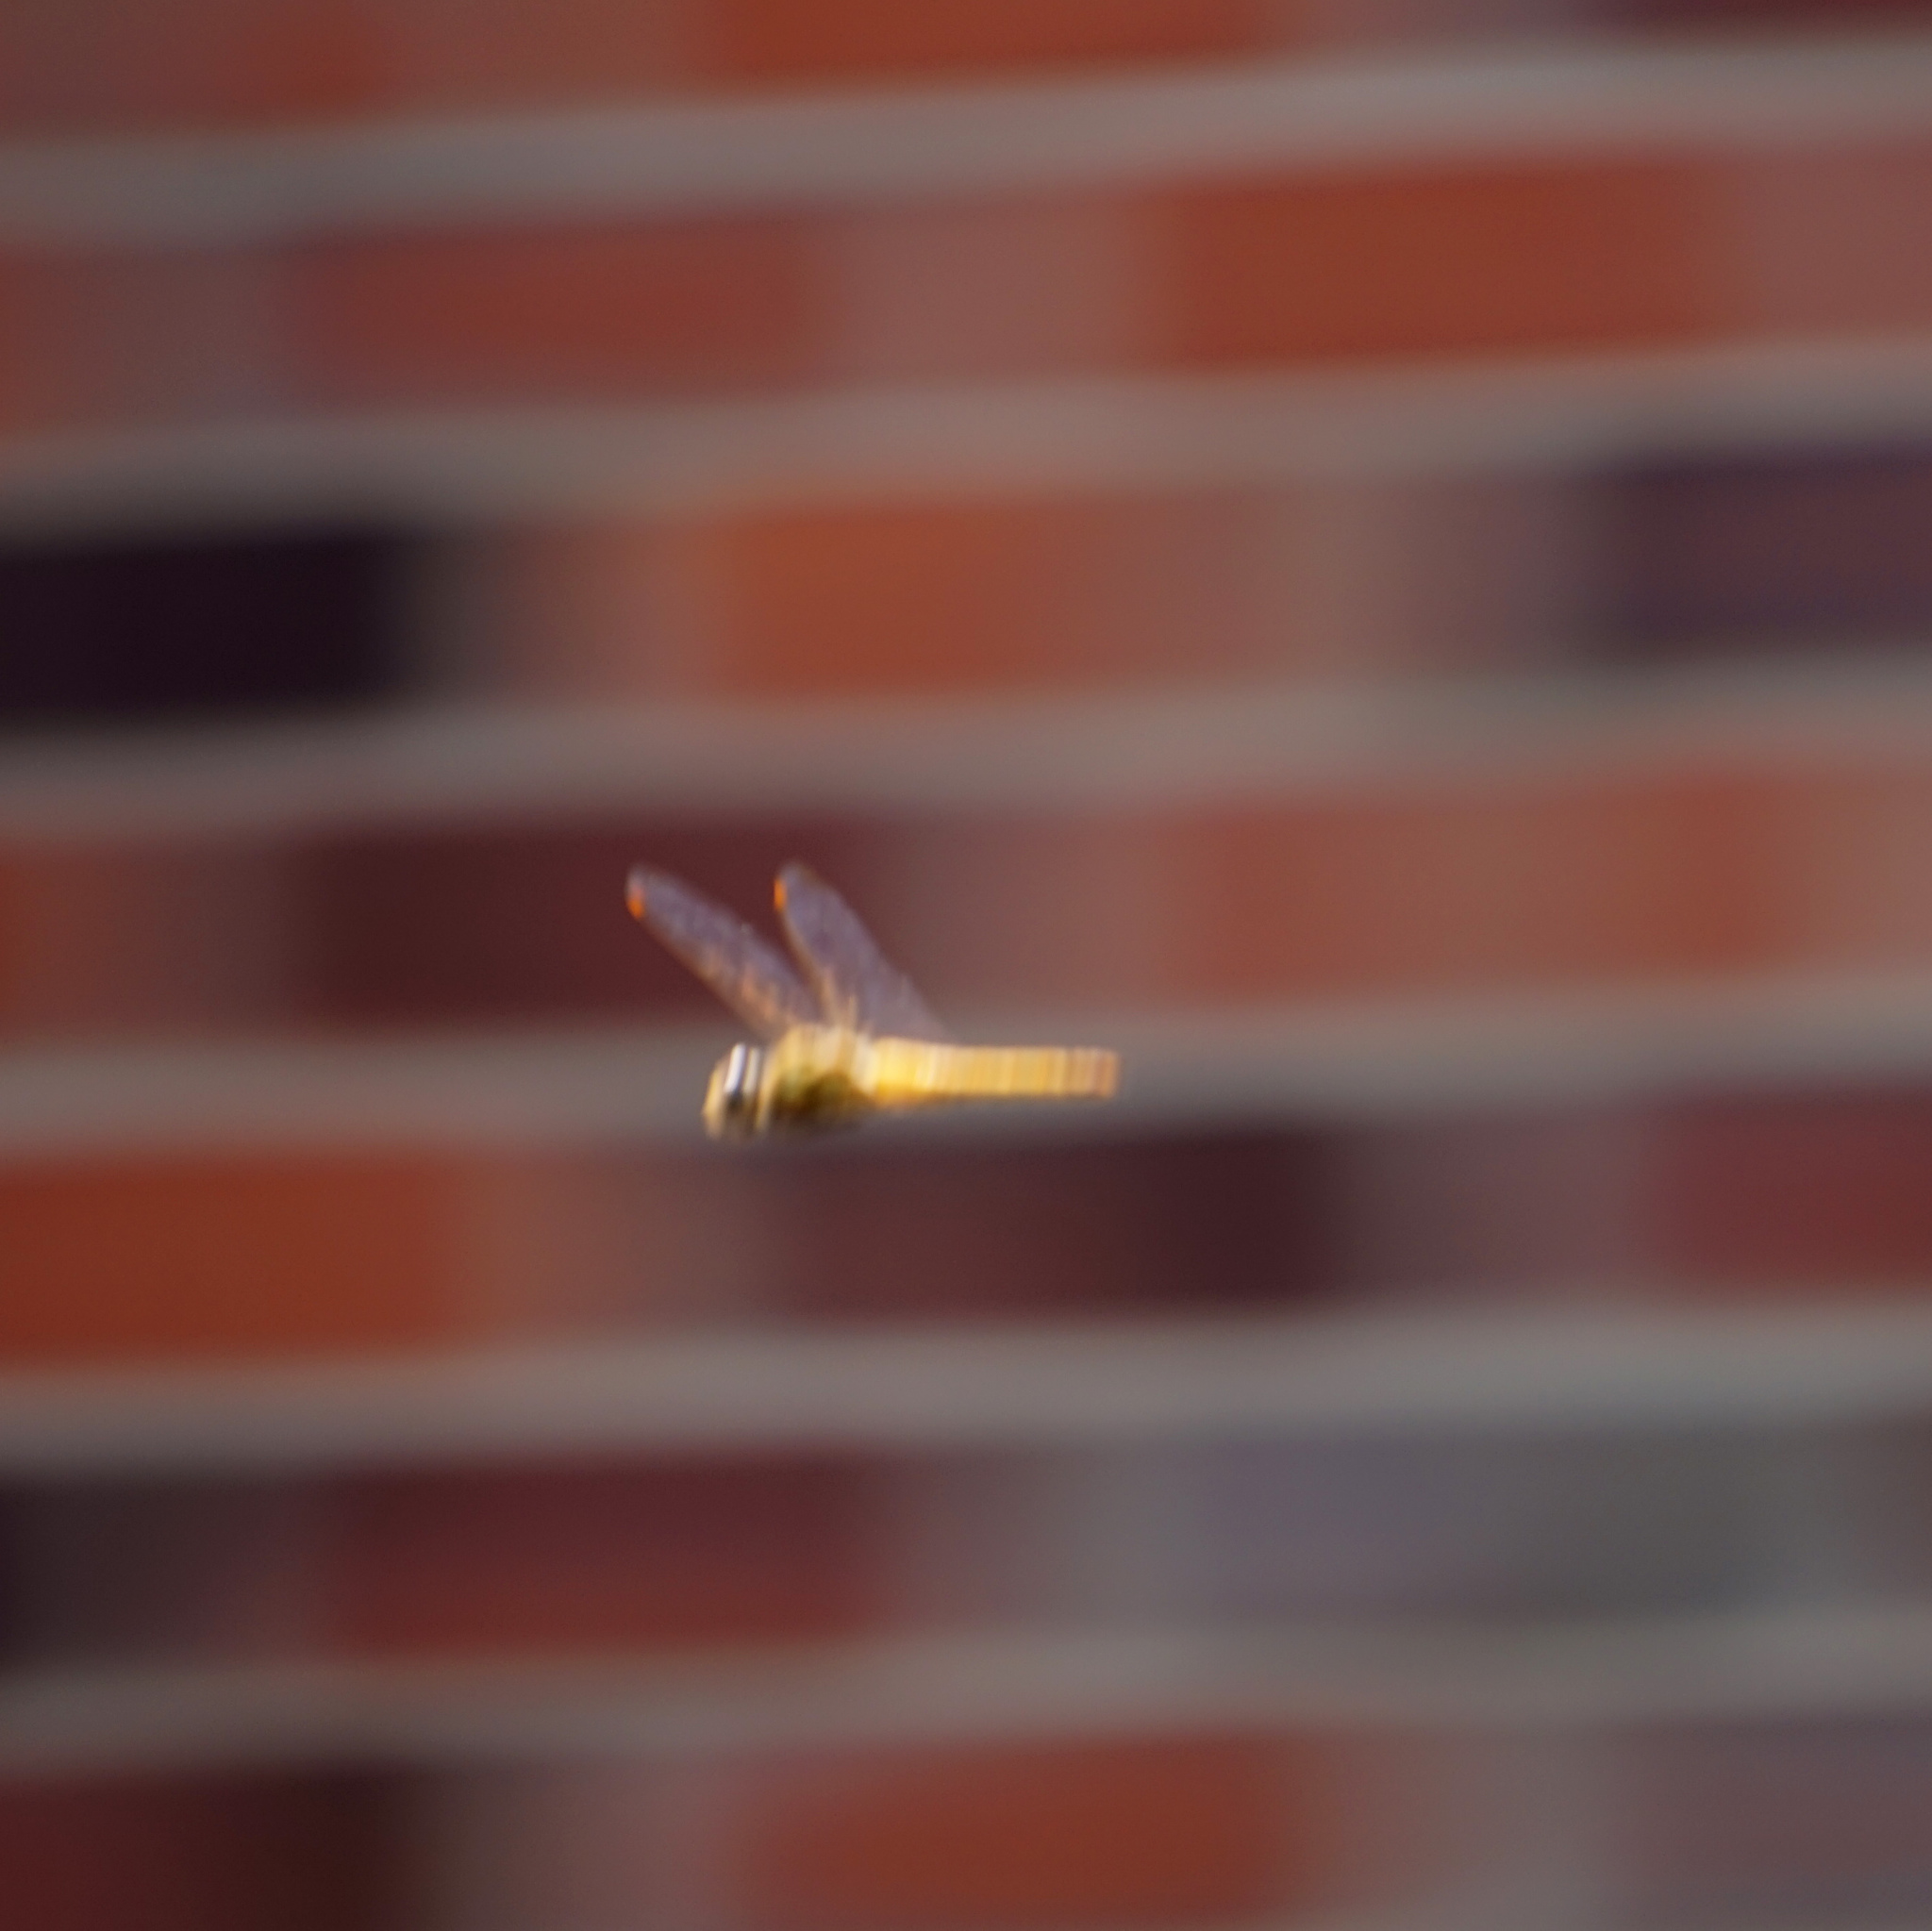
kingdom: Animalia
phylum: Arthropoda
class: Insecta
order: Odonata
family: Libellulidae
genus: Pantala
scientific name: Pantala flavescens
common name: Wandering glider
